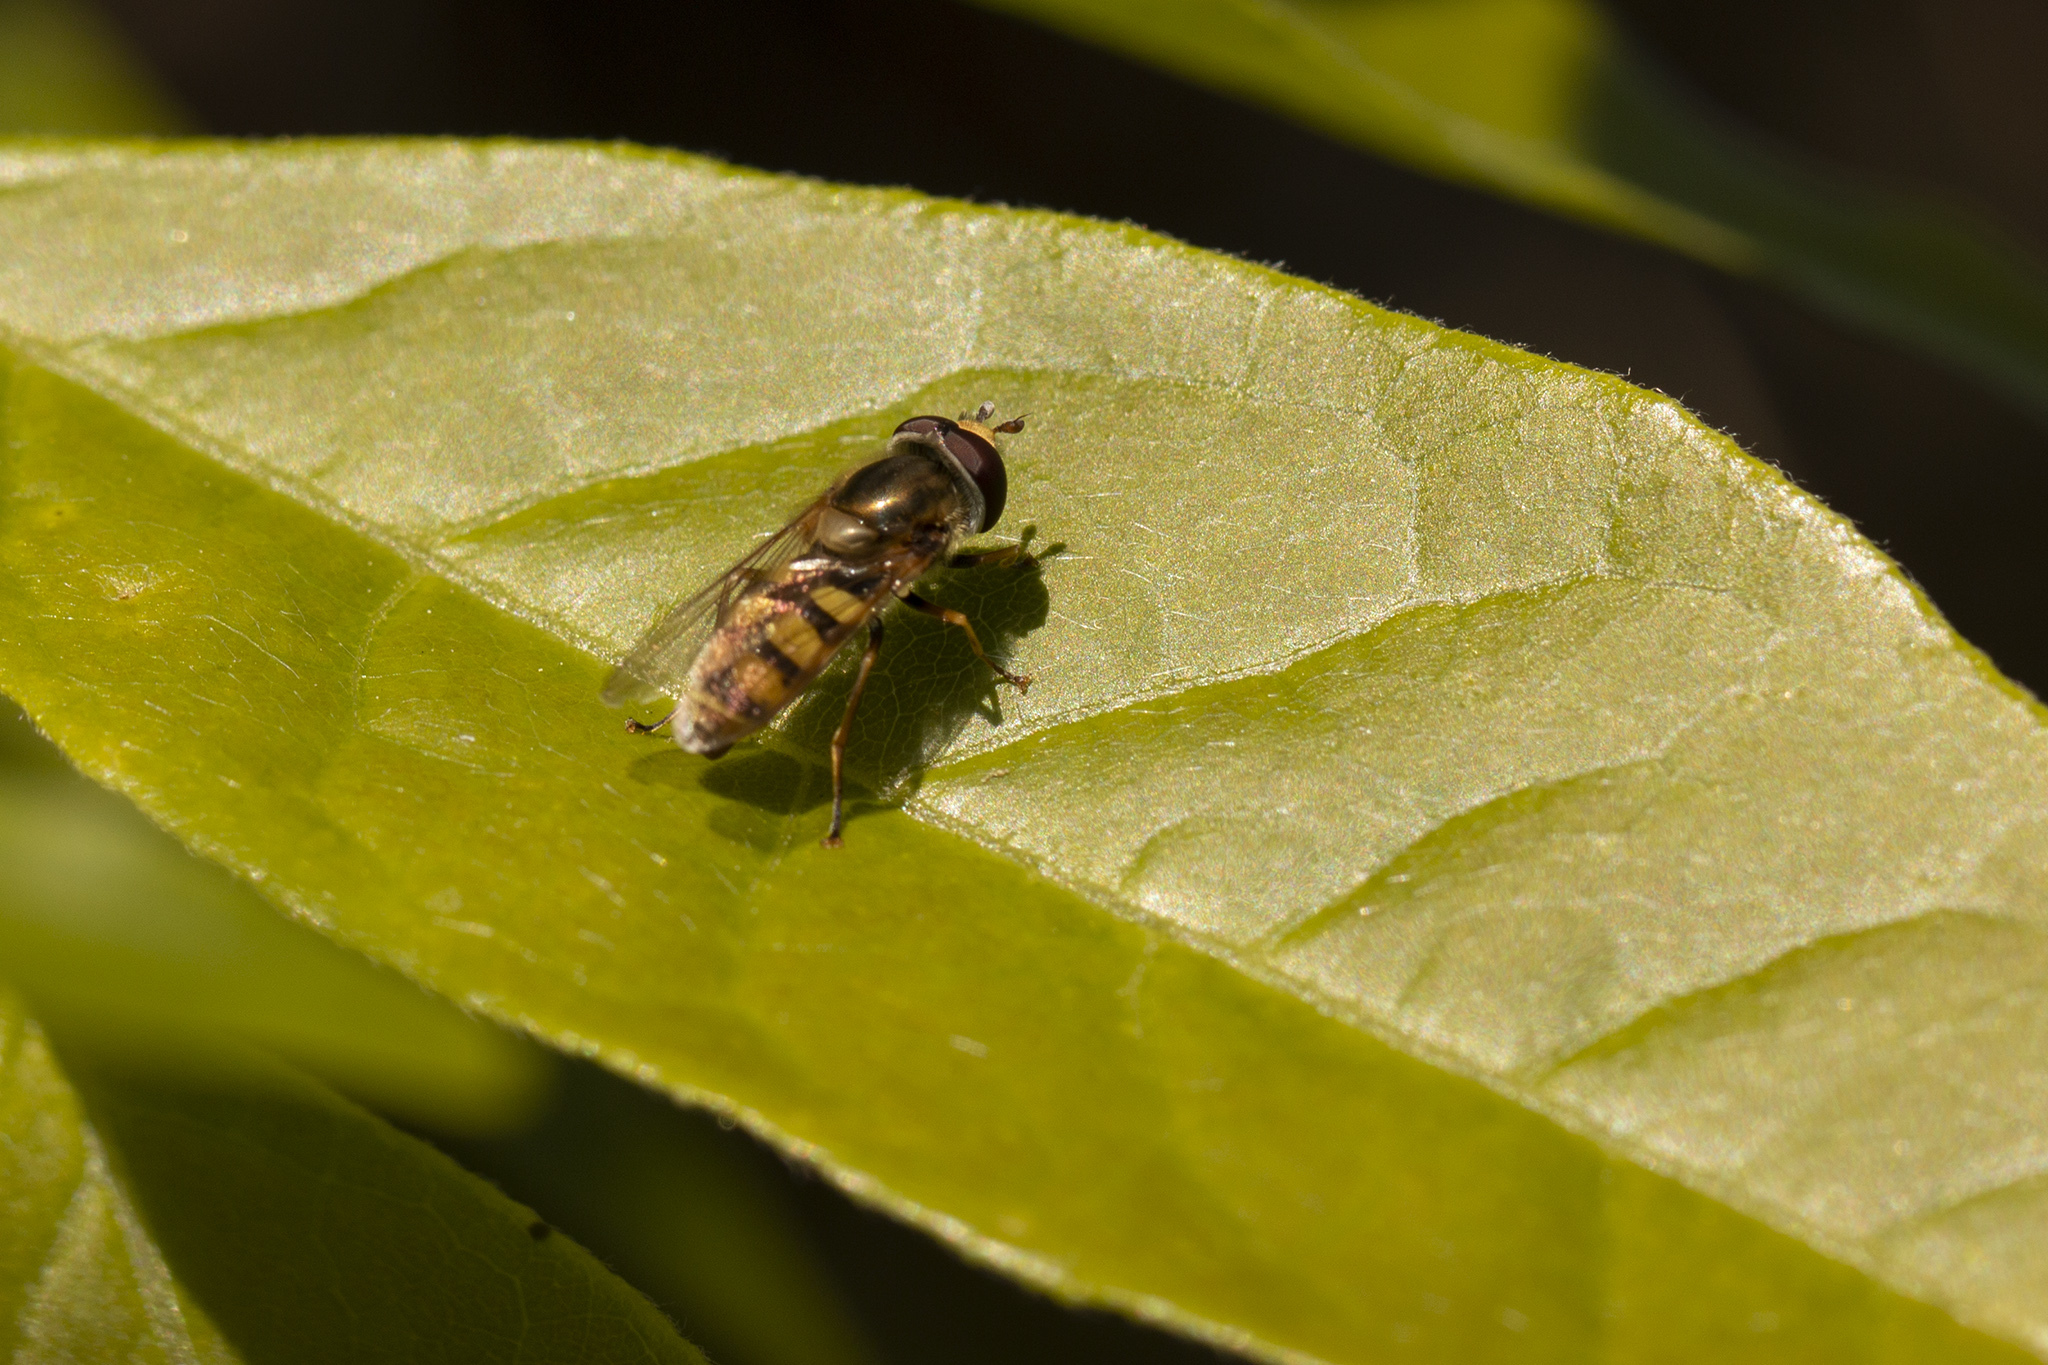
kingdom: Animalia
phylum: Arthropoda
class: Insecta
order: Diptera
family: Syrphidae
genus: Eupeodes
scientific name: Eupeodes corollae
